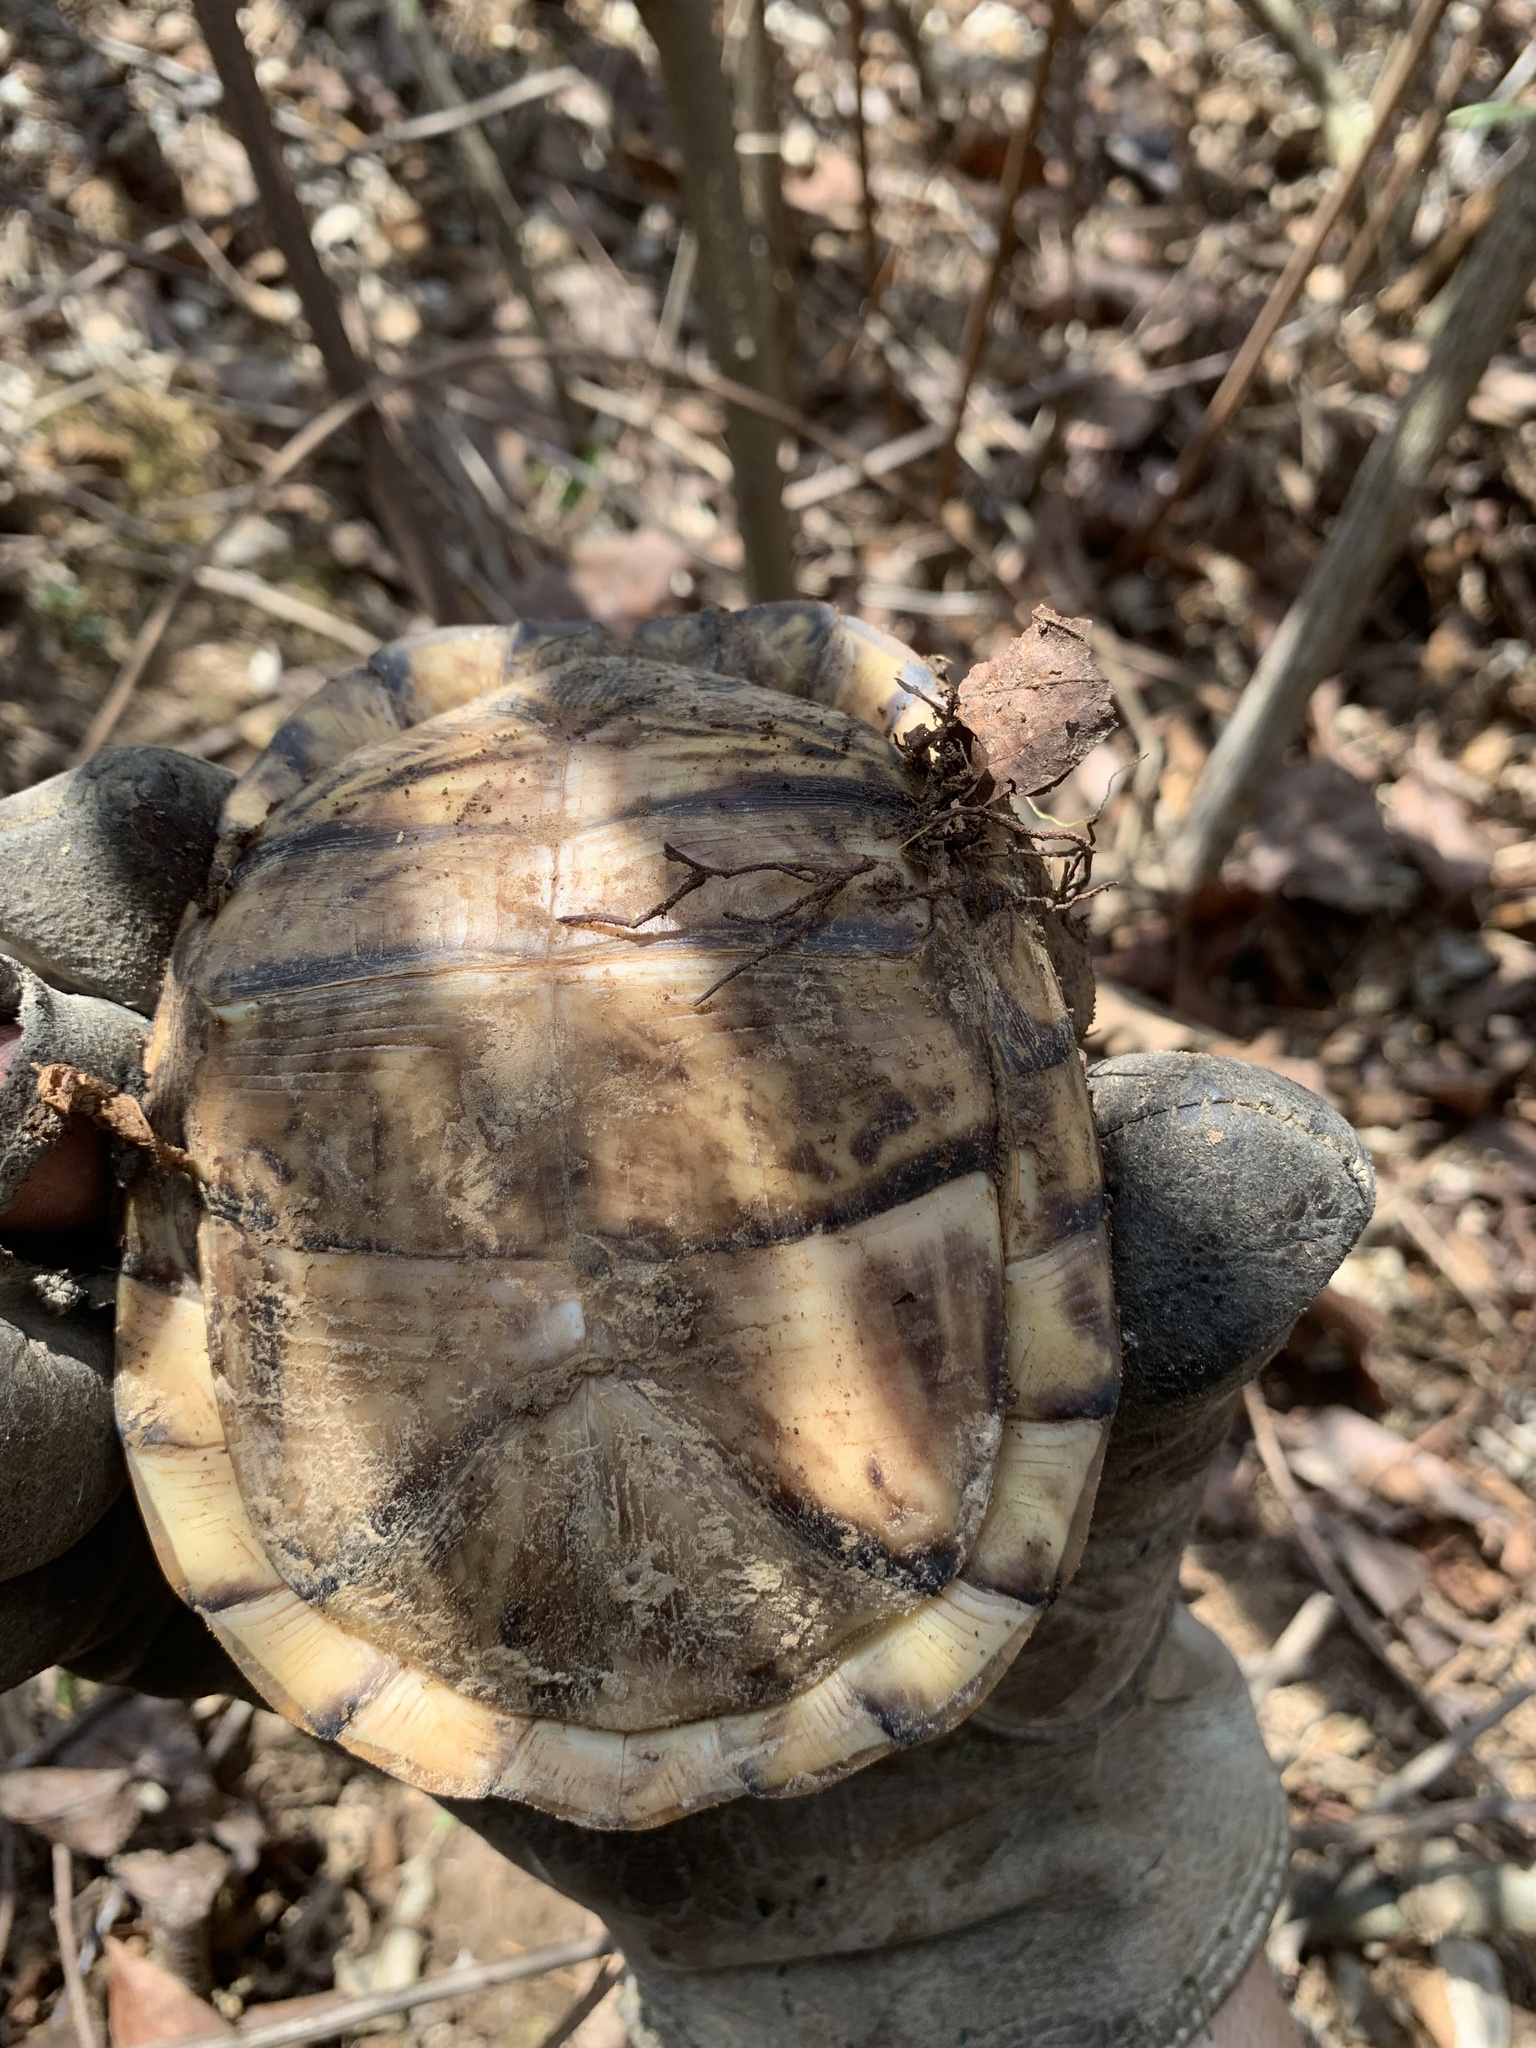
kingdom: Animalia
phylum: Chordata
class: Testudines
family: Emydidae
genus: Terrapene
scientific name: Terrapene carolina
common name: Common box turtle
